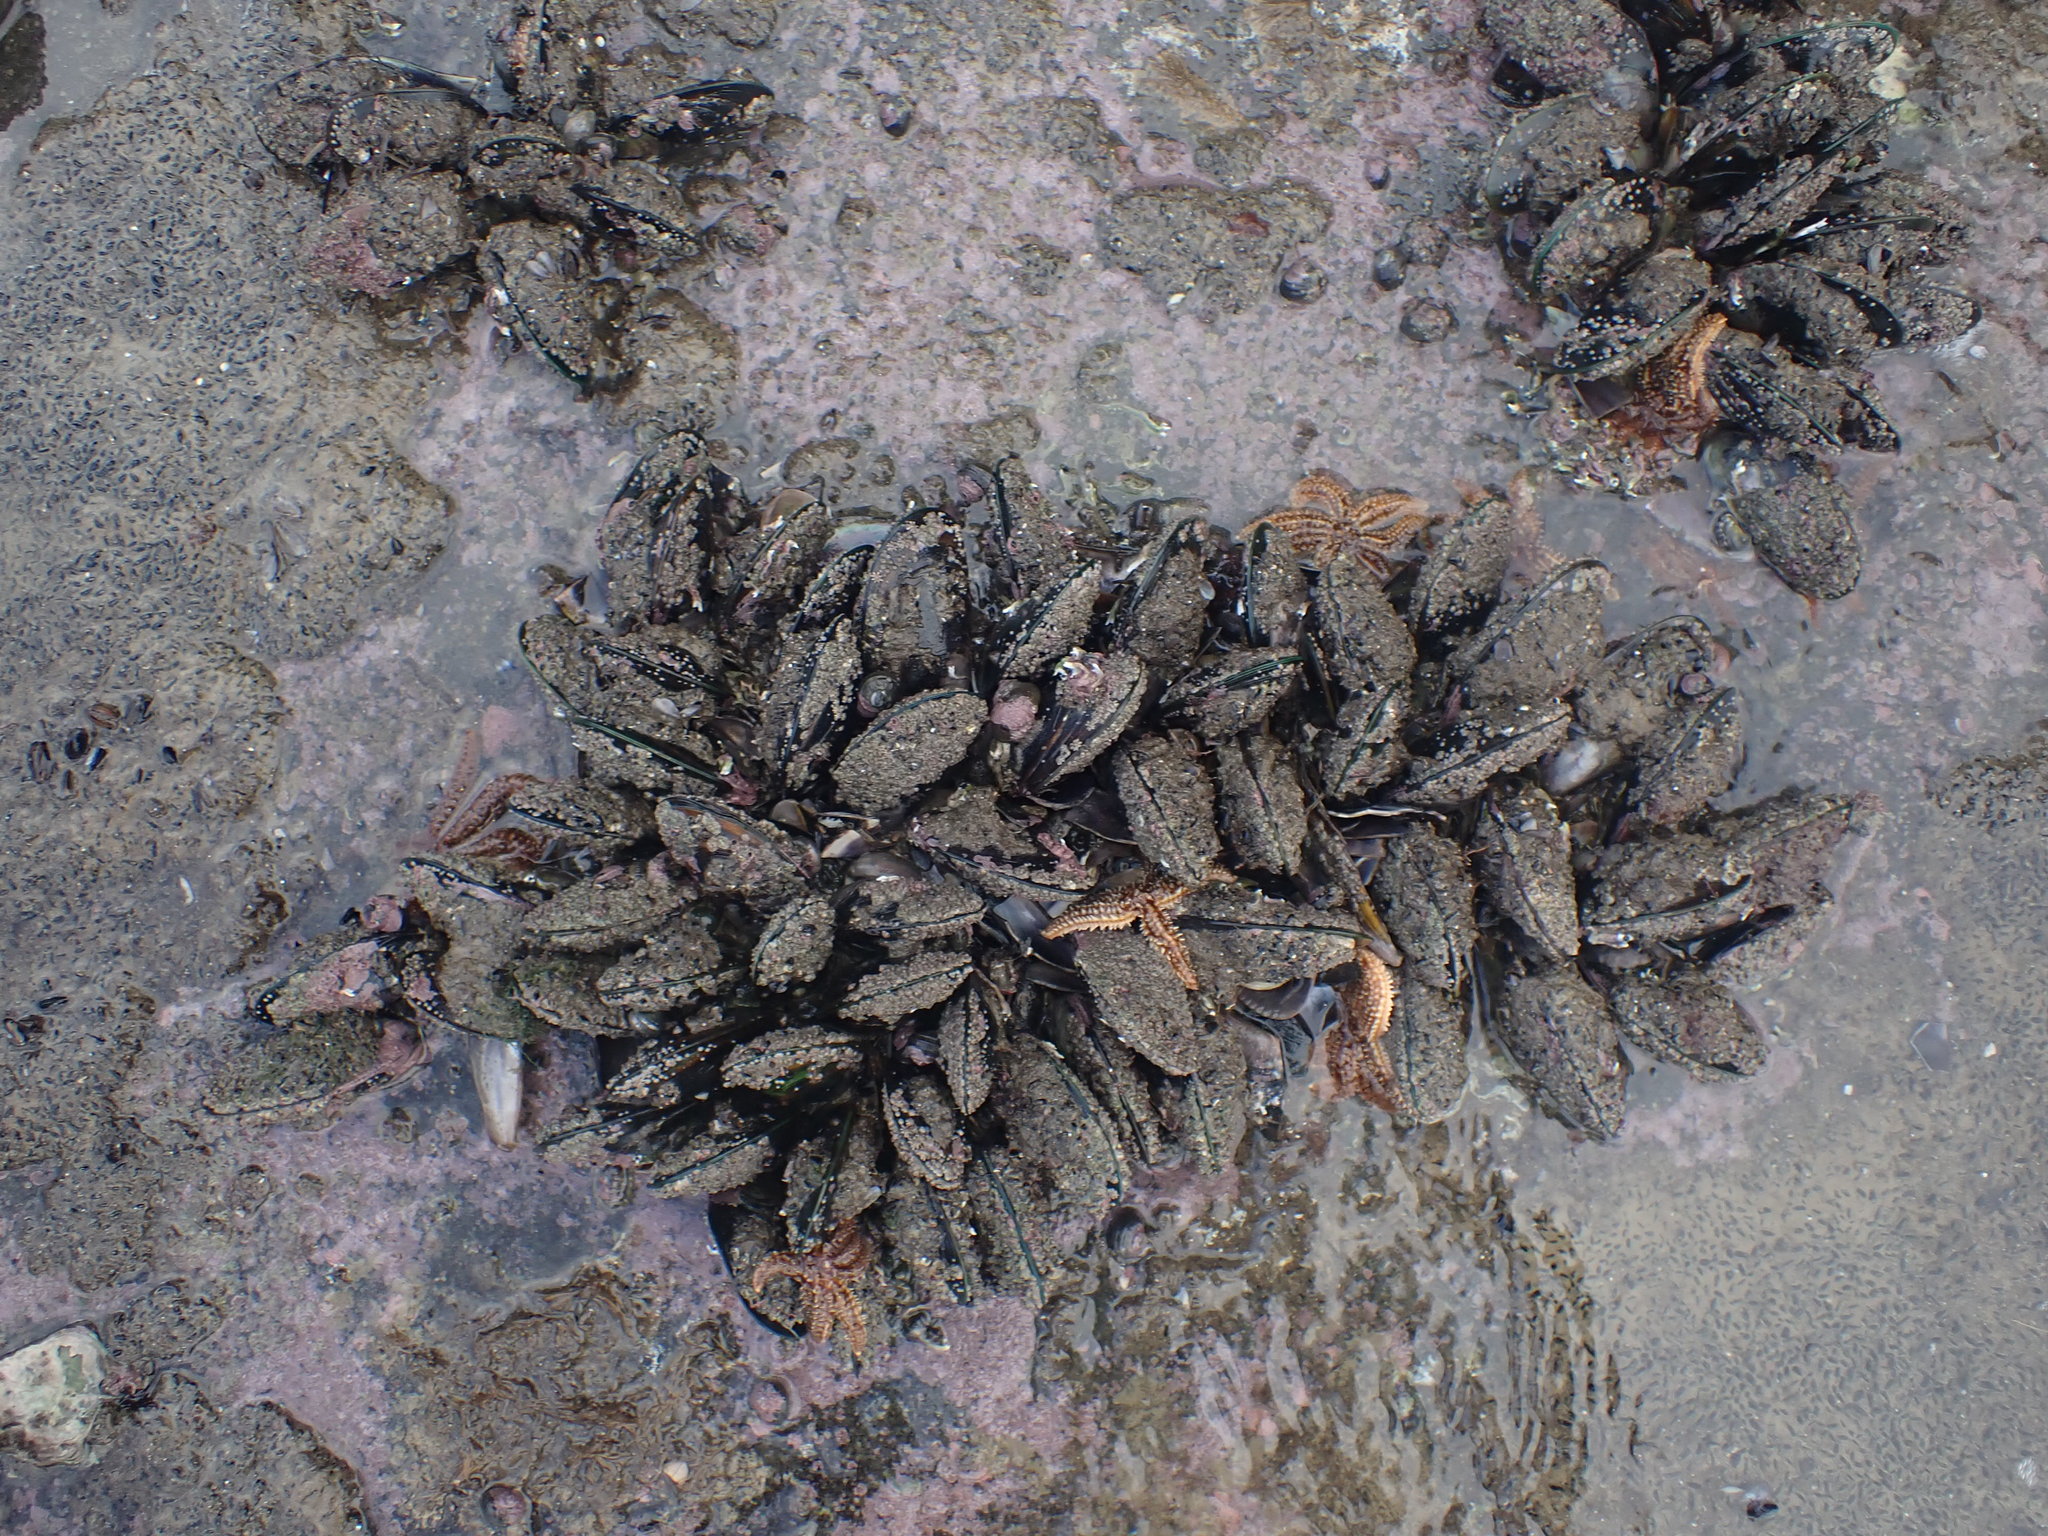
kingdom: Animalia
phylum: Echinodermata
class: Asteroidea
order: Forcipulatida
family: Asteriidae
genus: Coscinasterias
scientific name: Coscinasterias muricata
